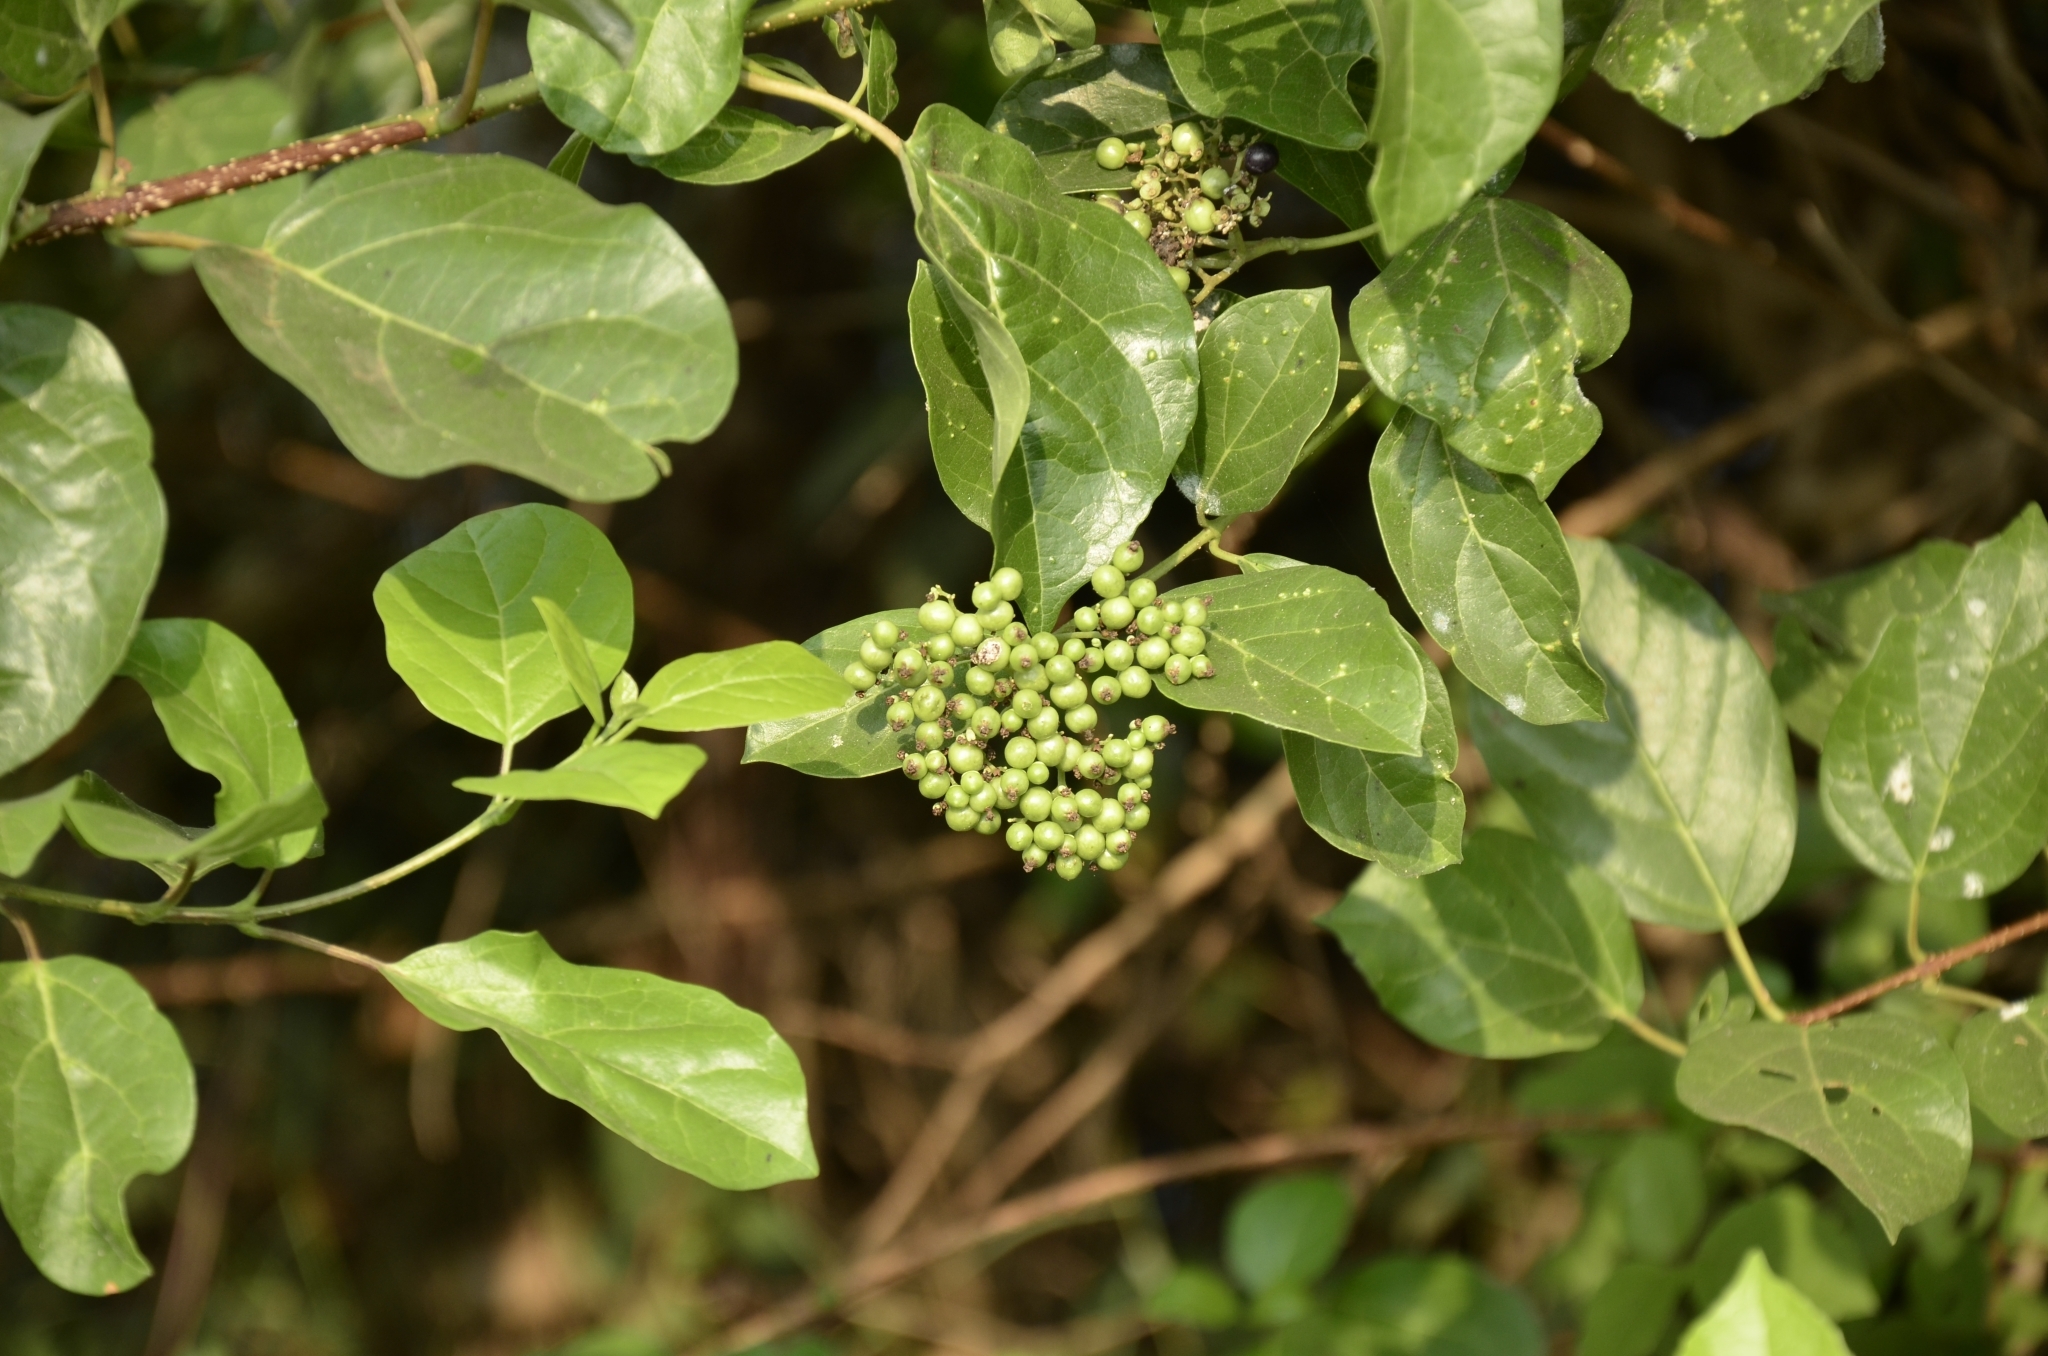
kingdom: Plantae
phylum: Tracheophyta
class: Magnoliopsida
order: Lamiales
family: Lamiaceae
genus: Premna
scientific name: Premna serratifolia
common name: Bastard guelder
